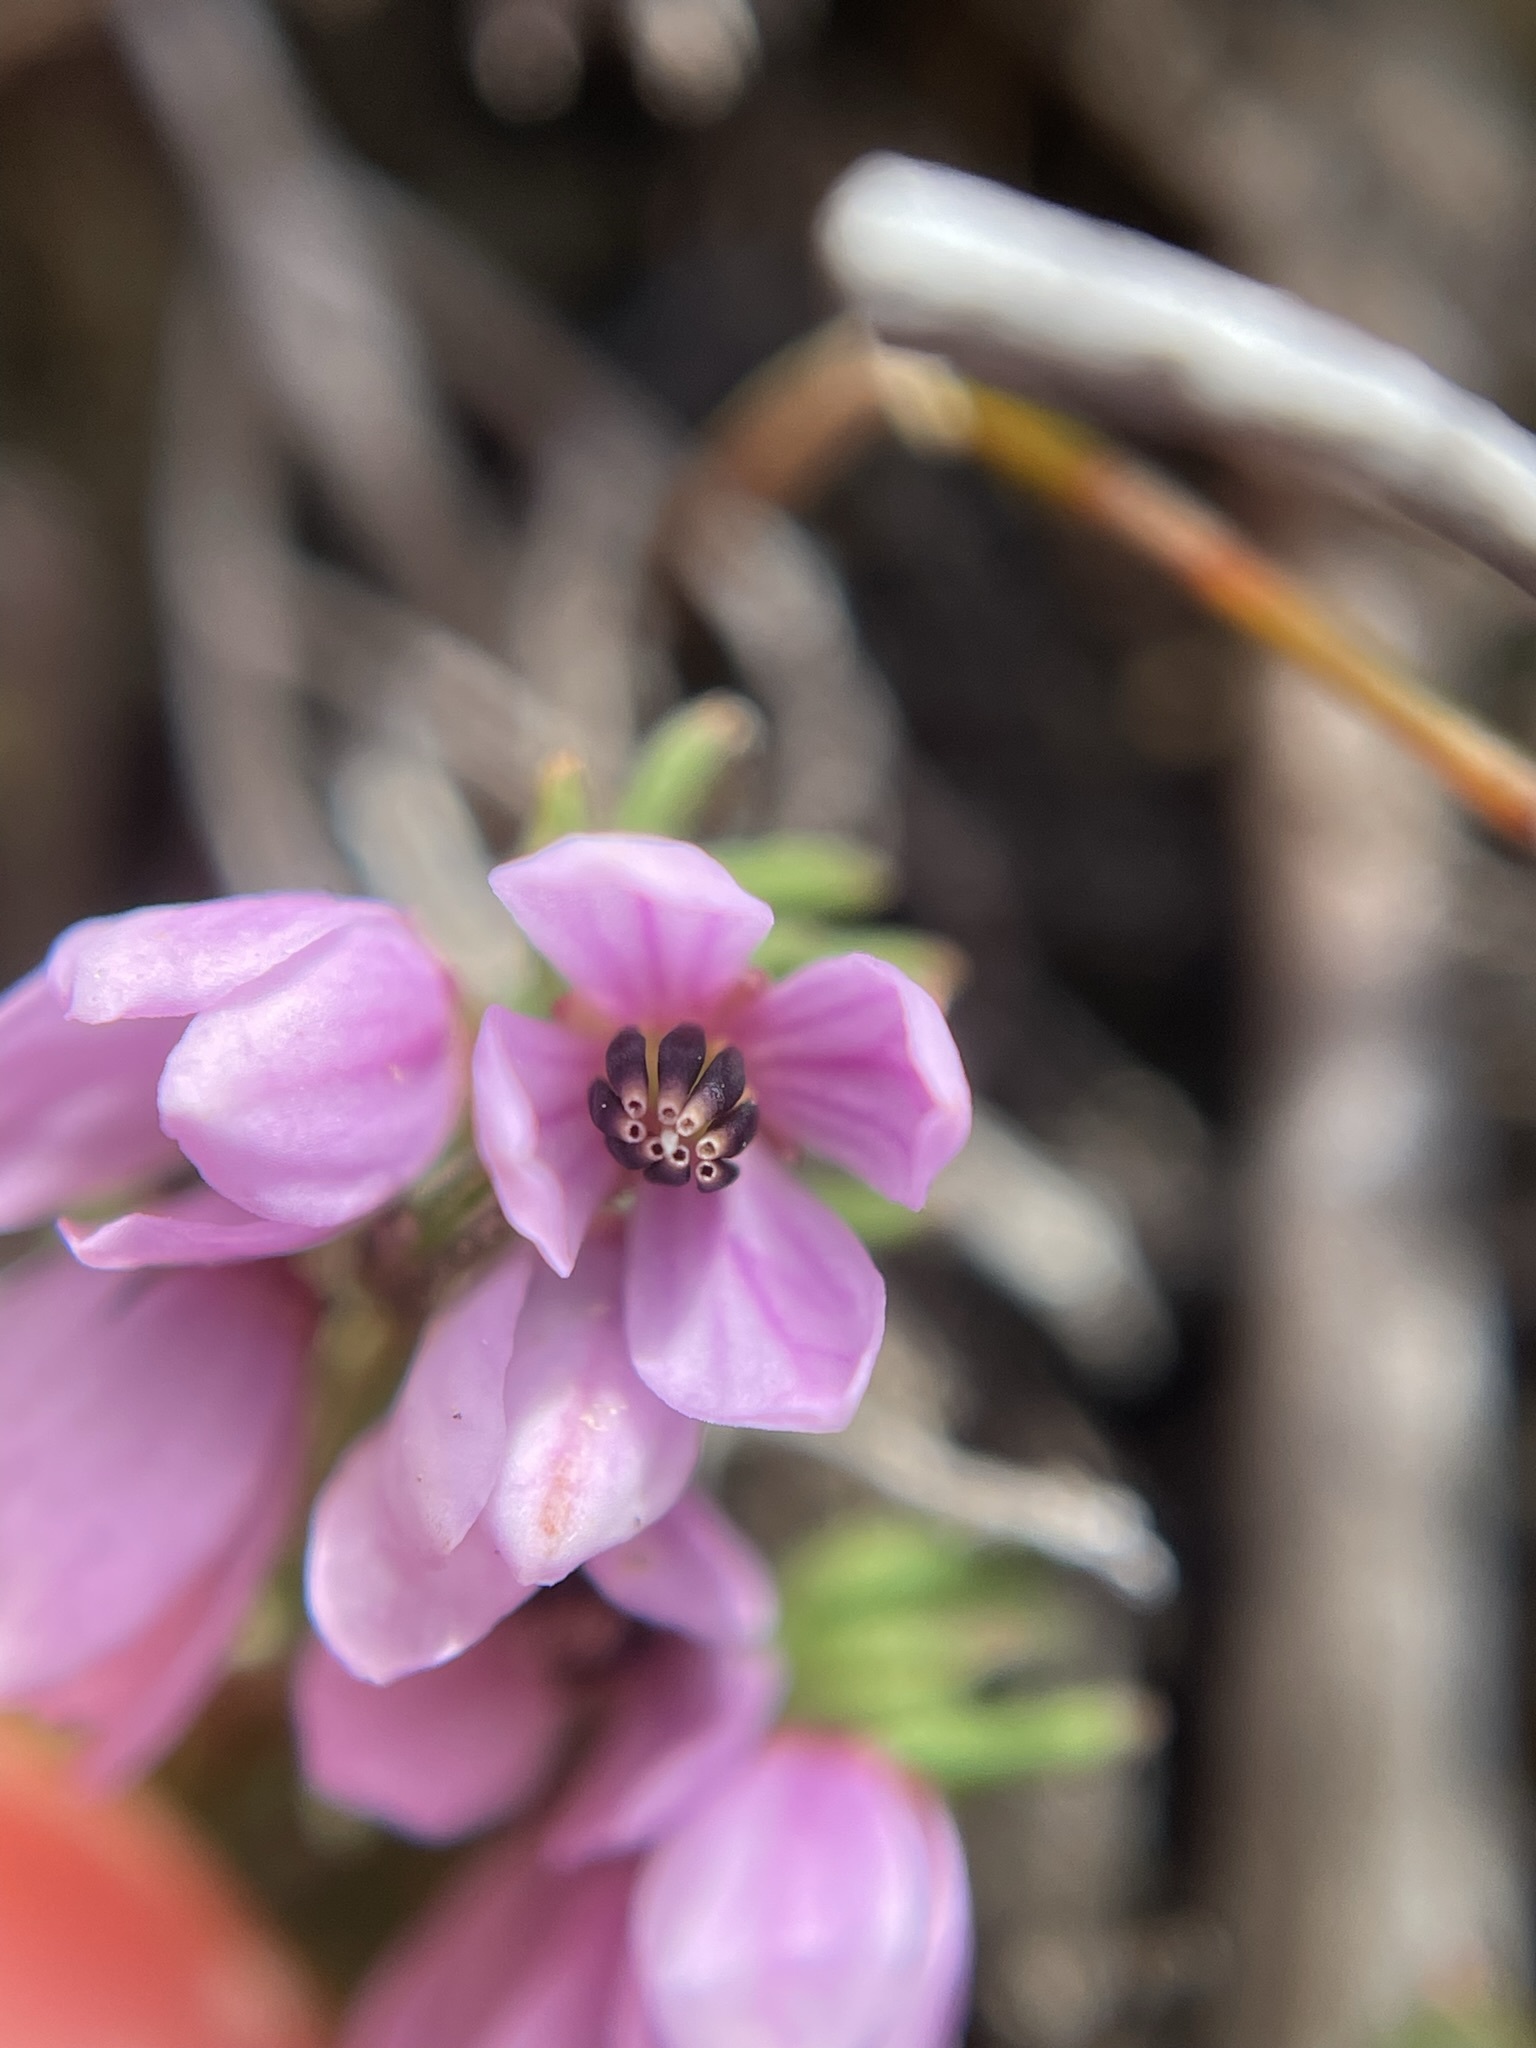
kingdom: Plantae
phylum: Tracheophyta
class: Magnoliopsida
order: Oxalidales
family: Elaeocarpaceae
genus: Tetratheca
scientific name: Tetratheca procumbens
